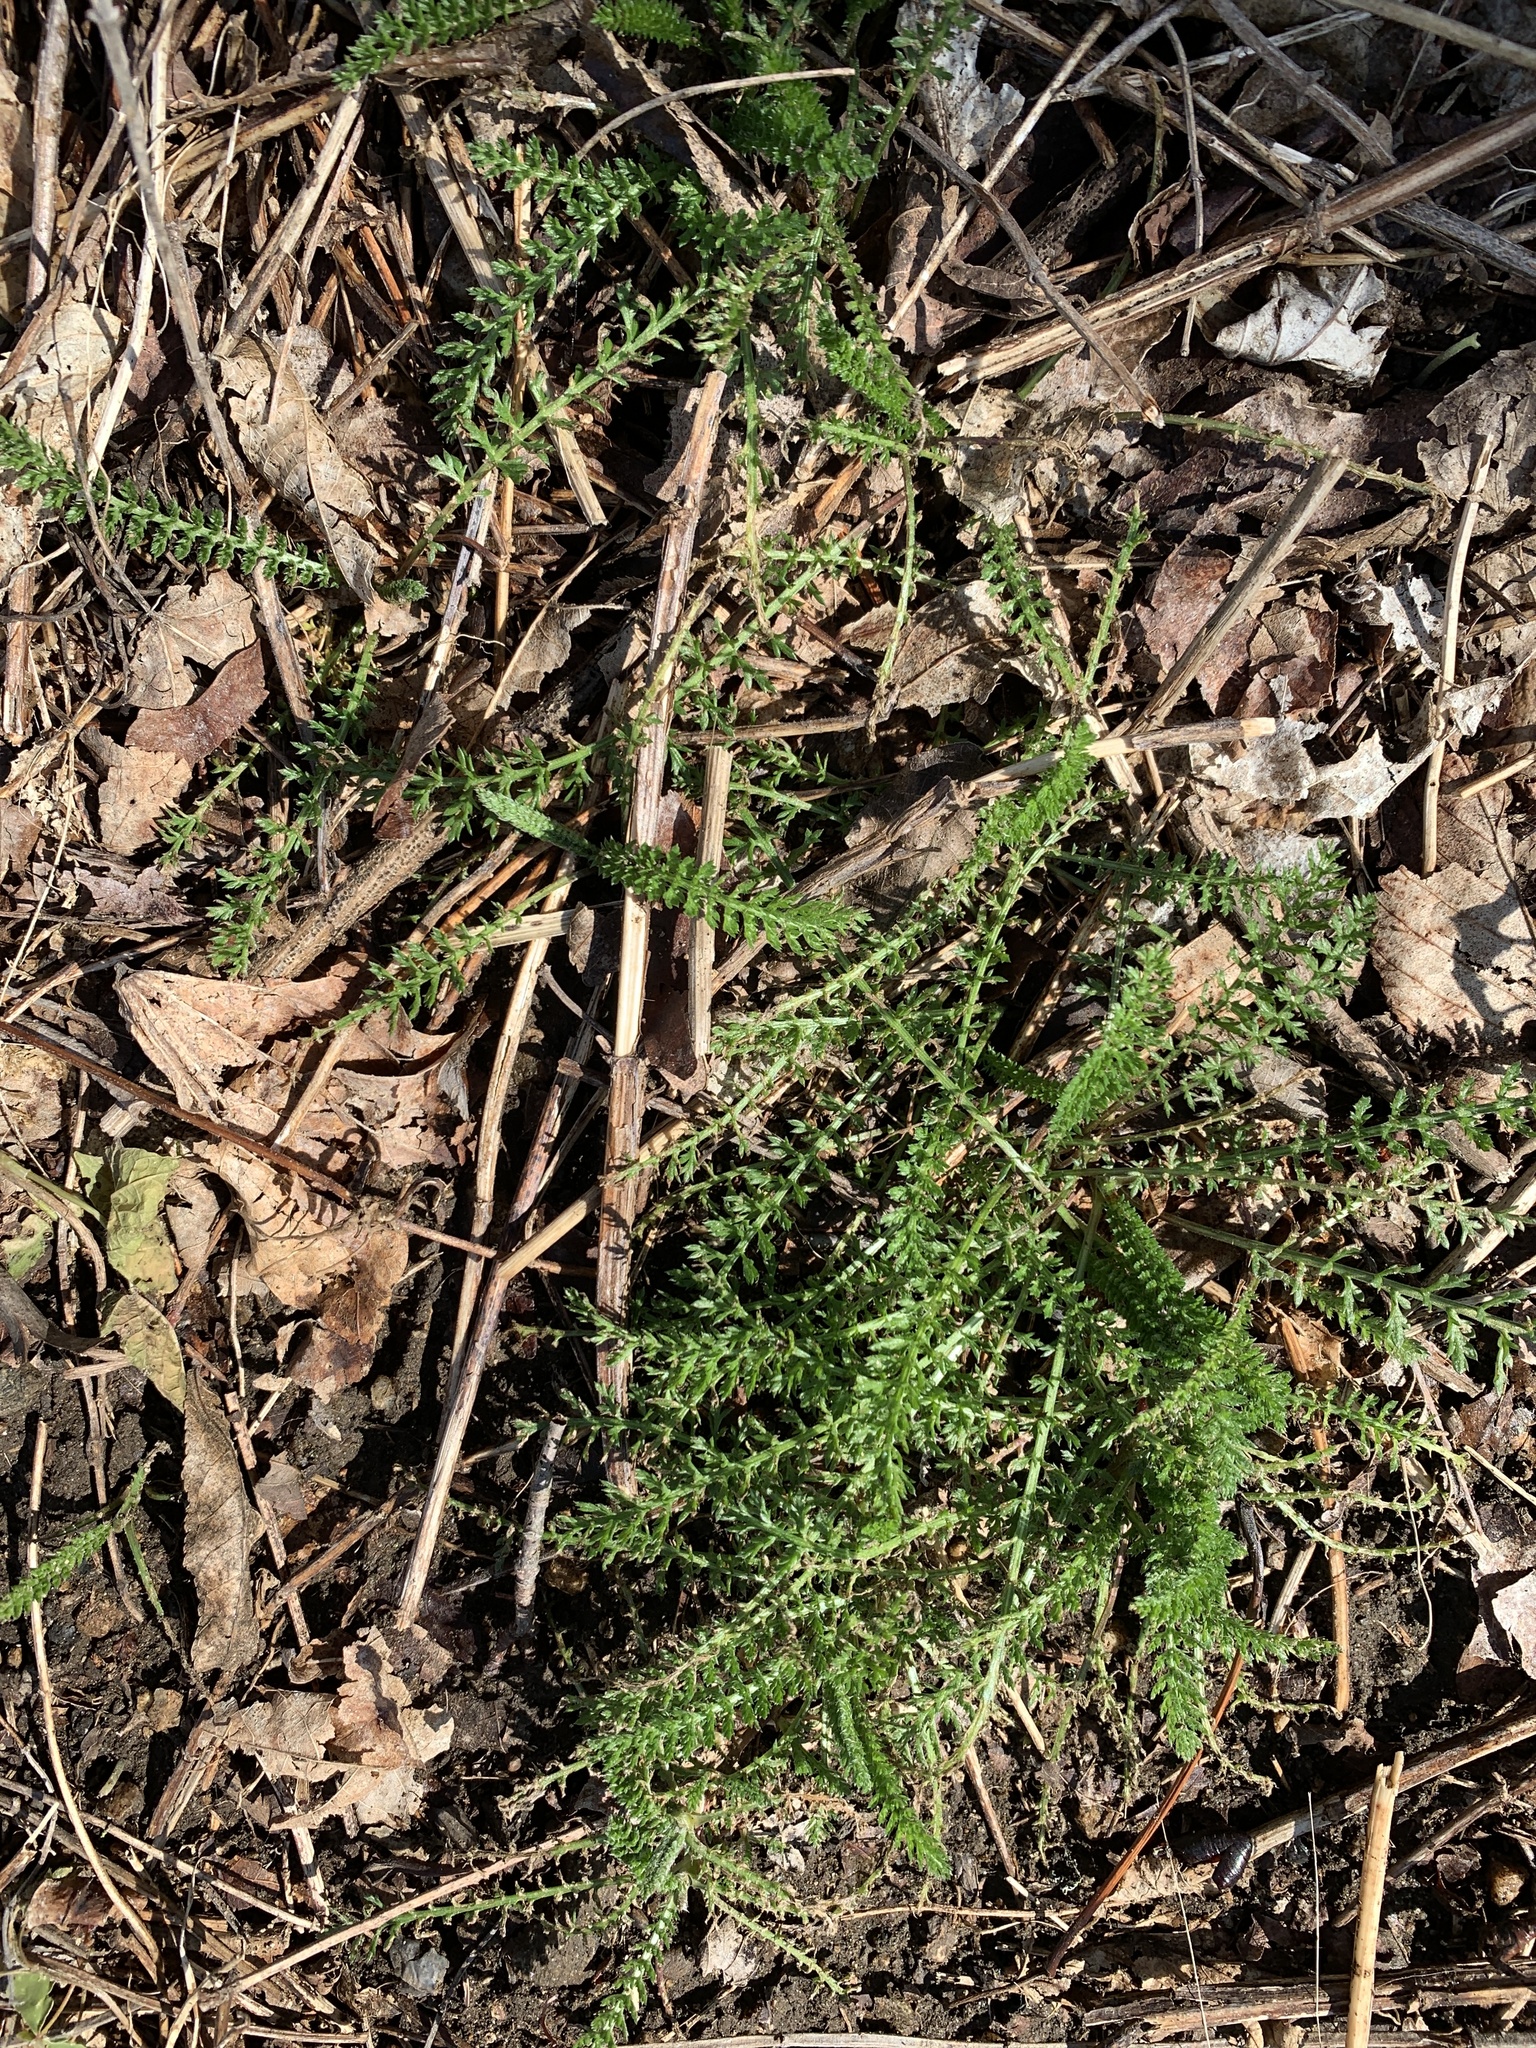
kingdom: Plantae
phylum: Tracheophyta
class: Magnoliopsida
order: Asterales
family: Asteraceae
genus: Achillea
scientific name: Achillea millefolium
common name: Yarrow
